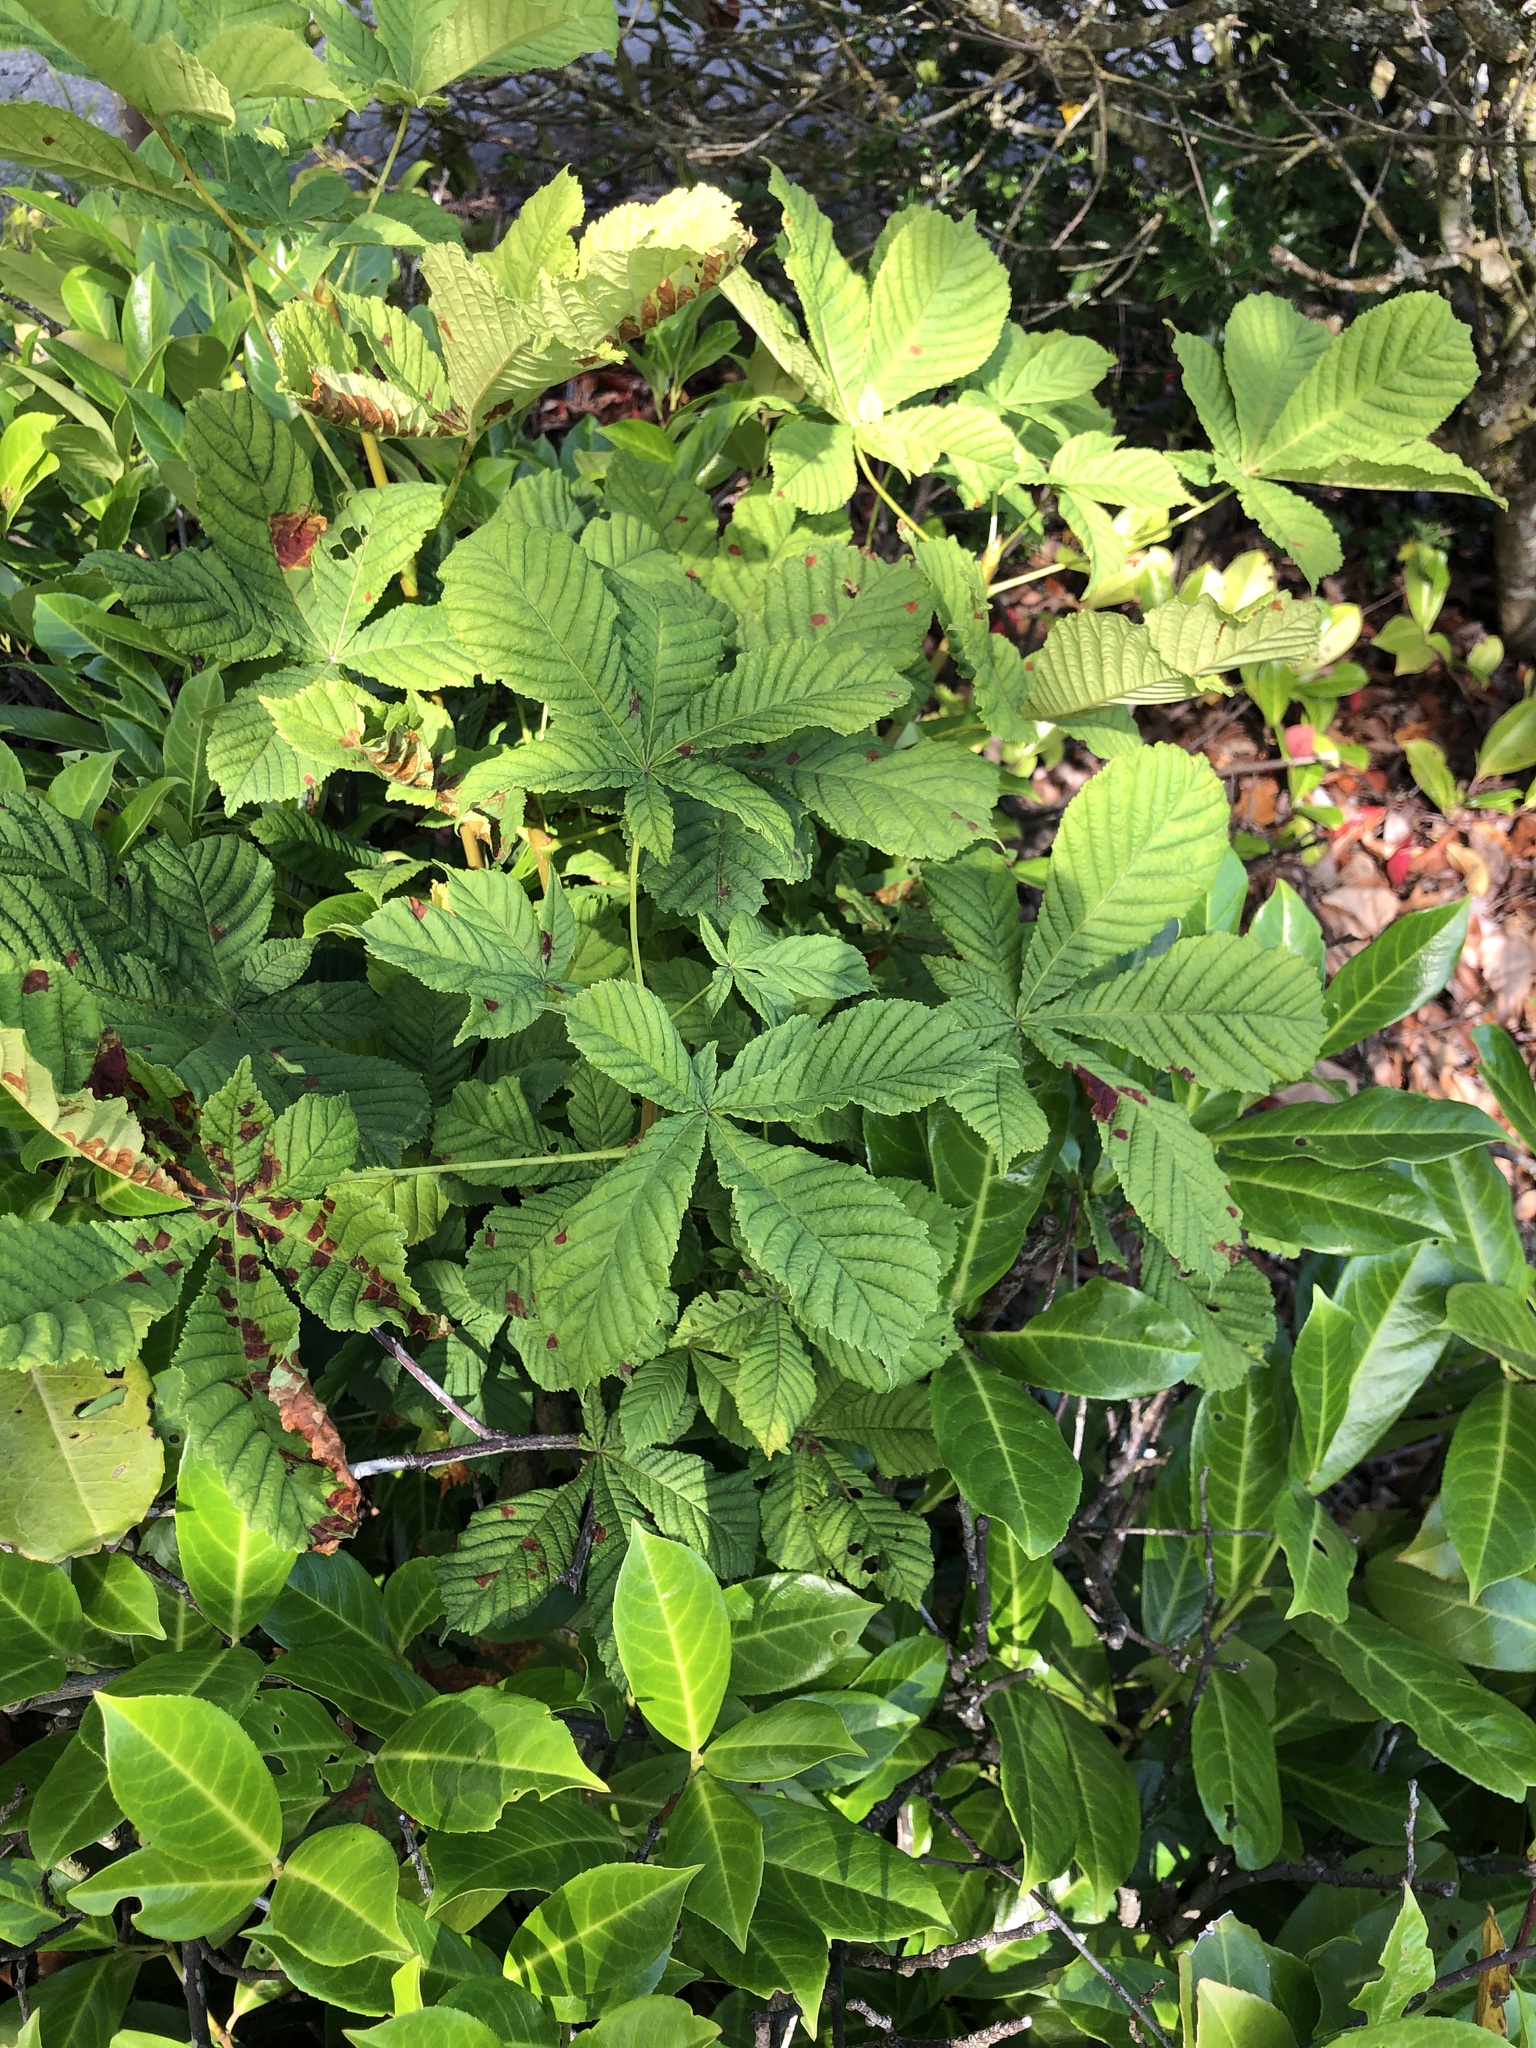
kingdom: Plantae
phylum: Tracheophyta
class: Magnoliopsida
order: Sapindales
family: Sapindaceae
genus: Aesculus
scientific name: Aesculus hippocastanum
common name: Horse-chestnut
